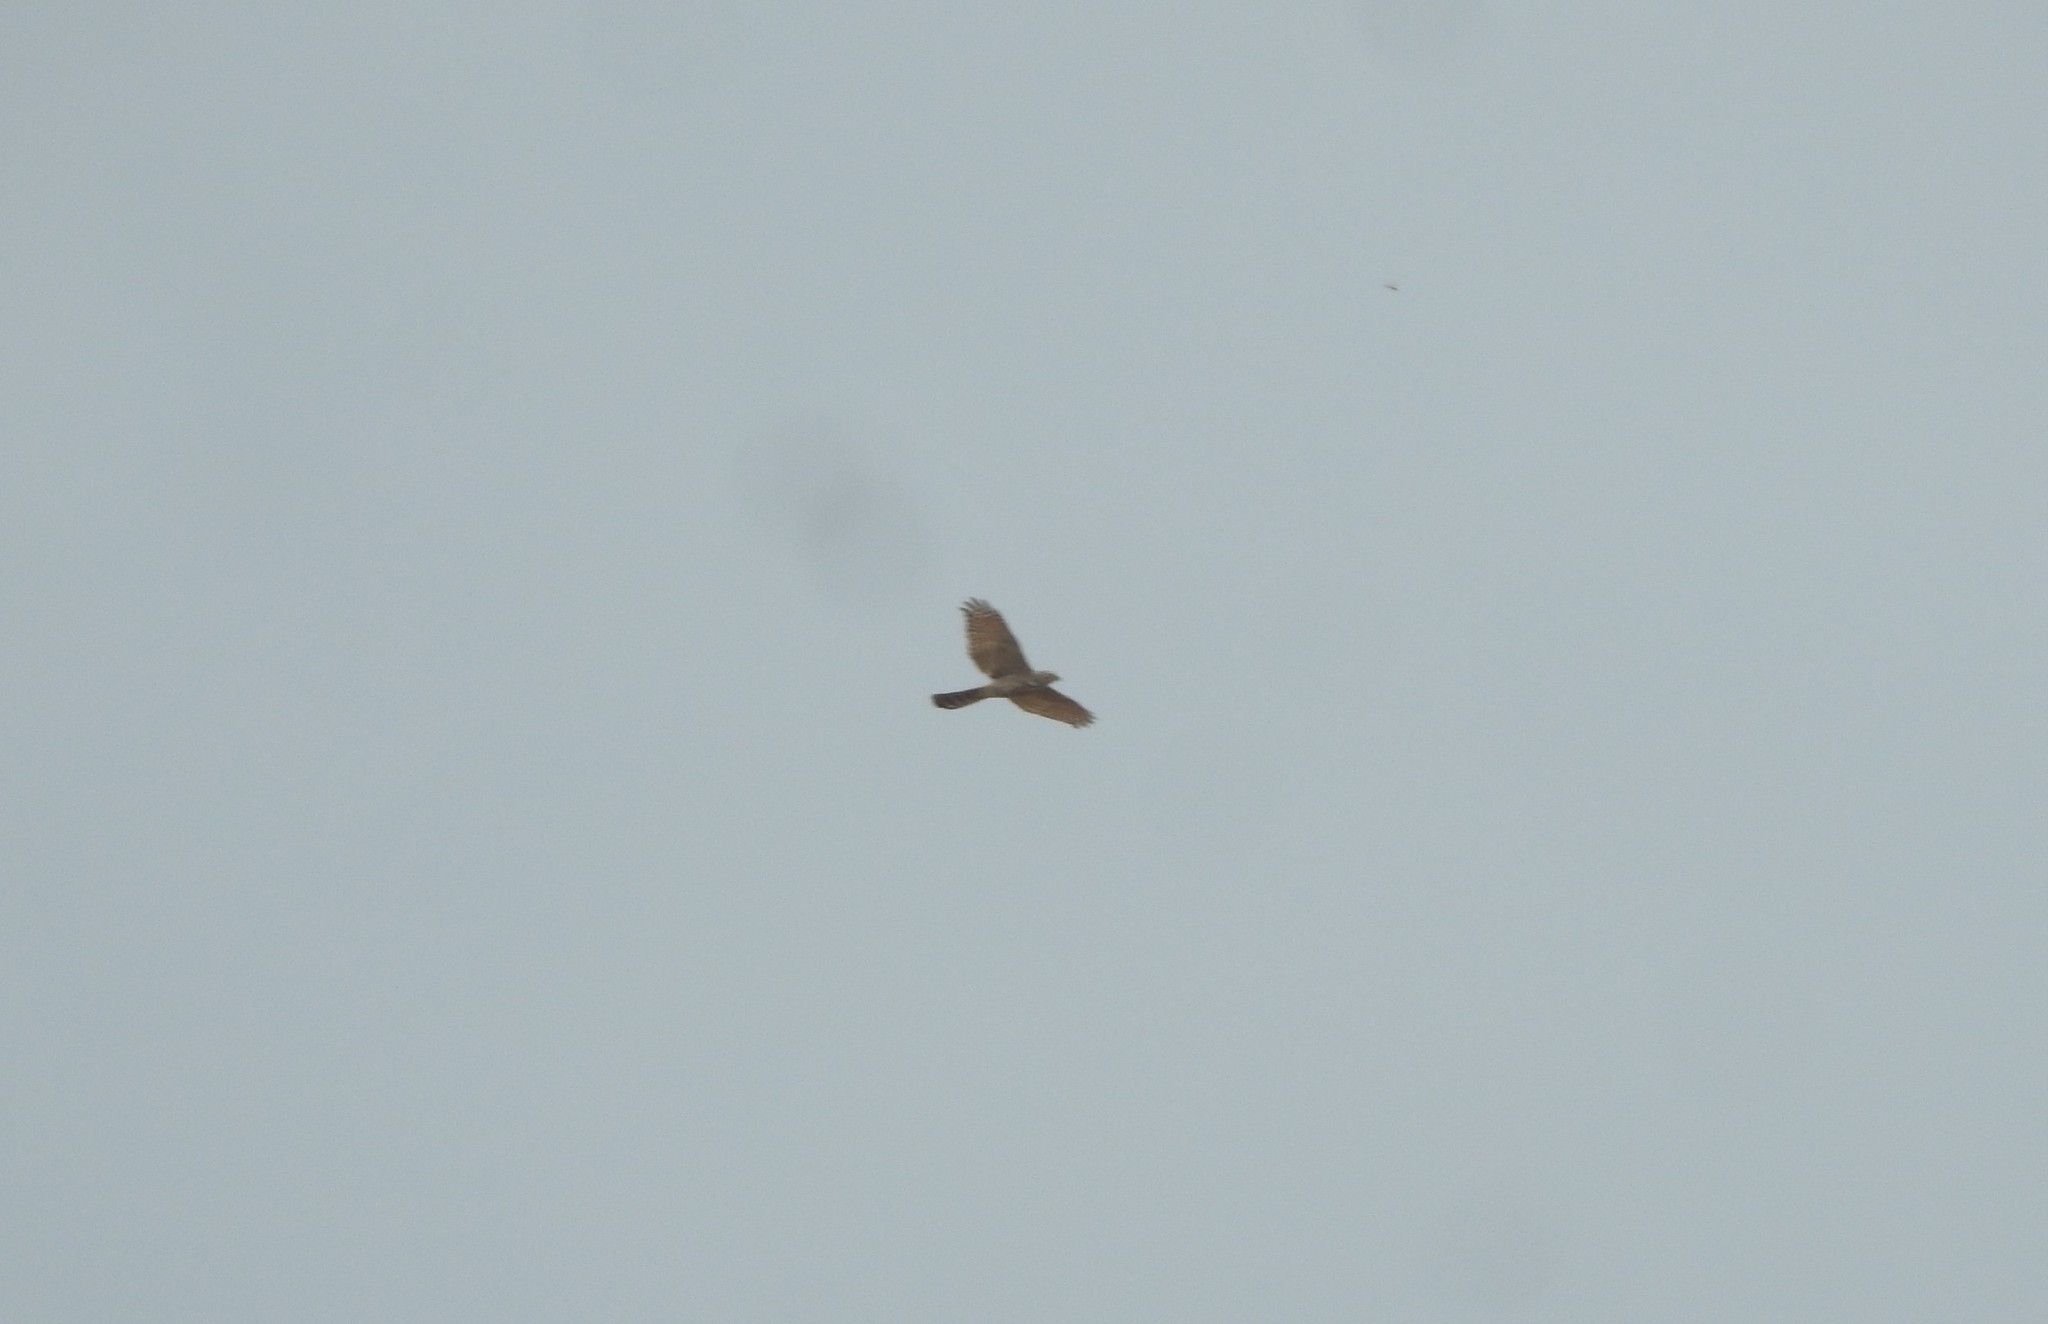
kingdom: Animalia
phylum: Chordata
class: Aves
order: Accipitriformes
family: Accipitridae
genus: Accipiter
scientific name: Accipiter badius
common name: Shikra
